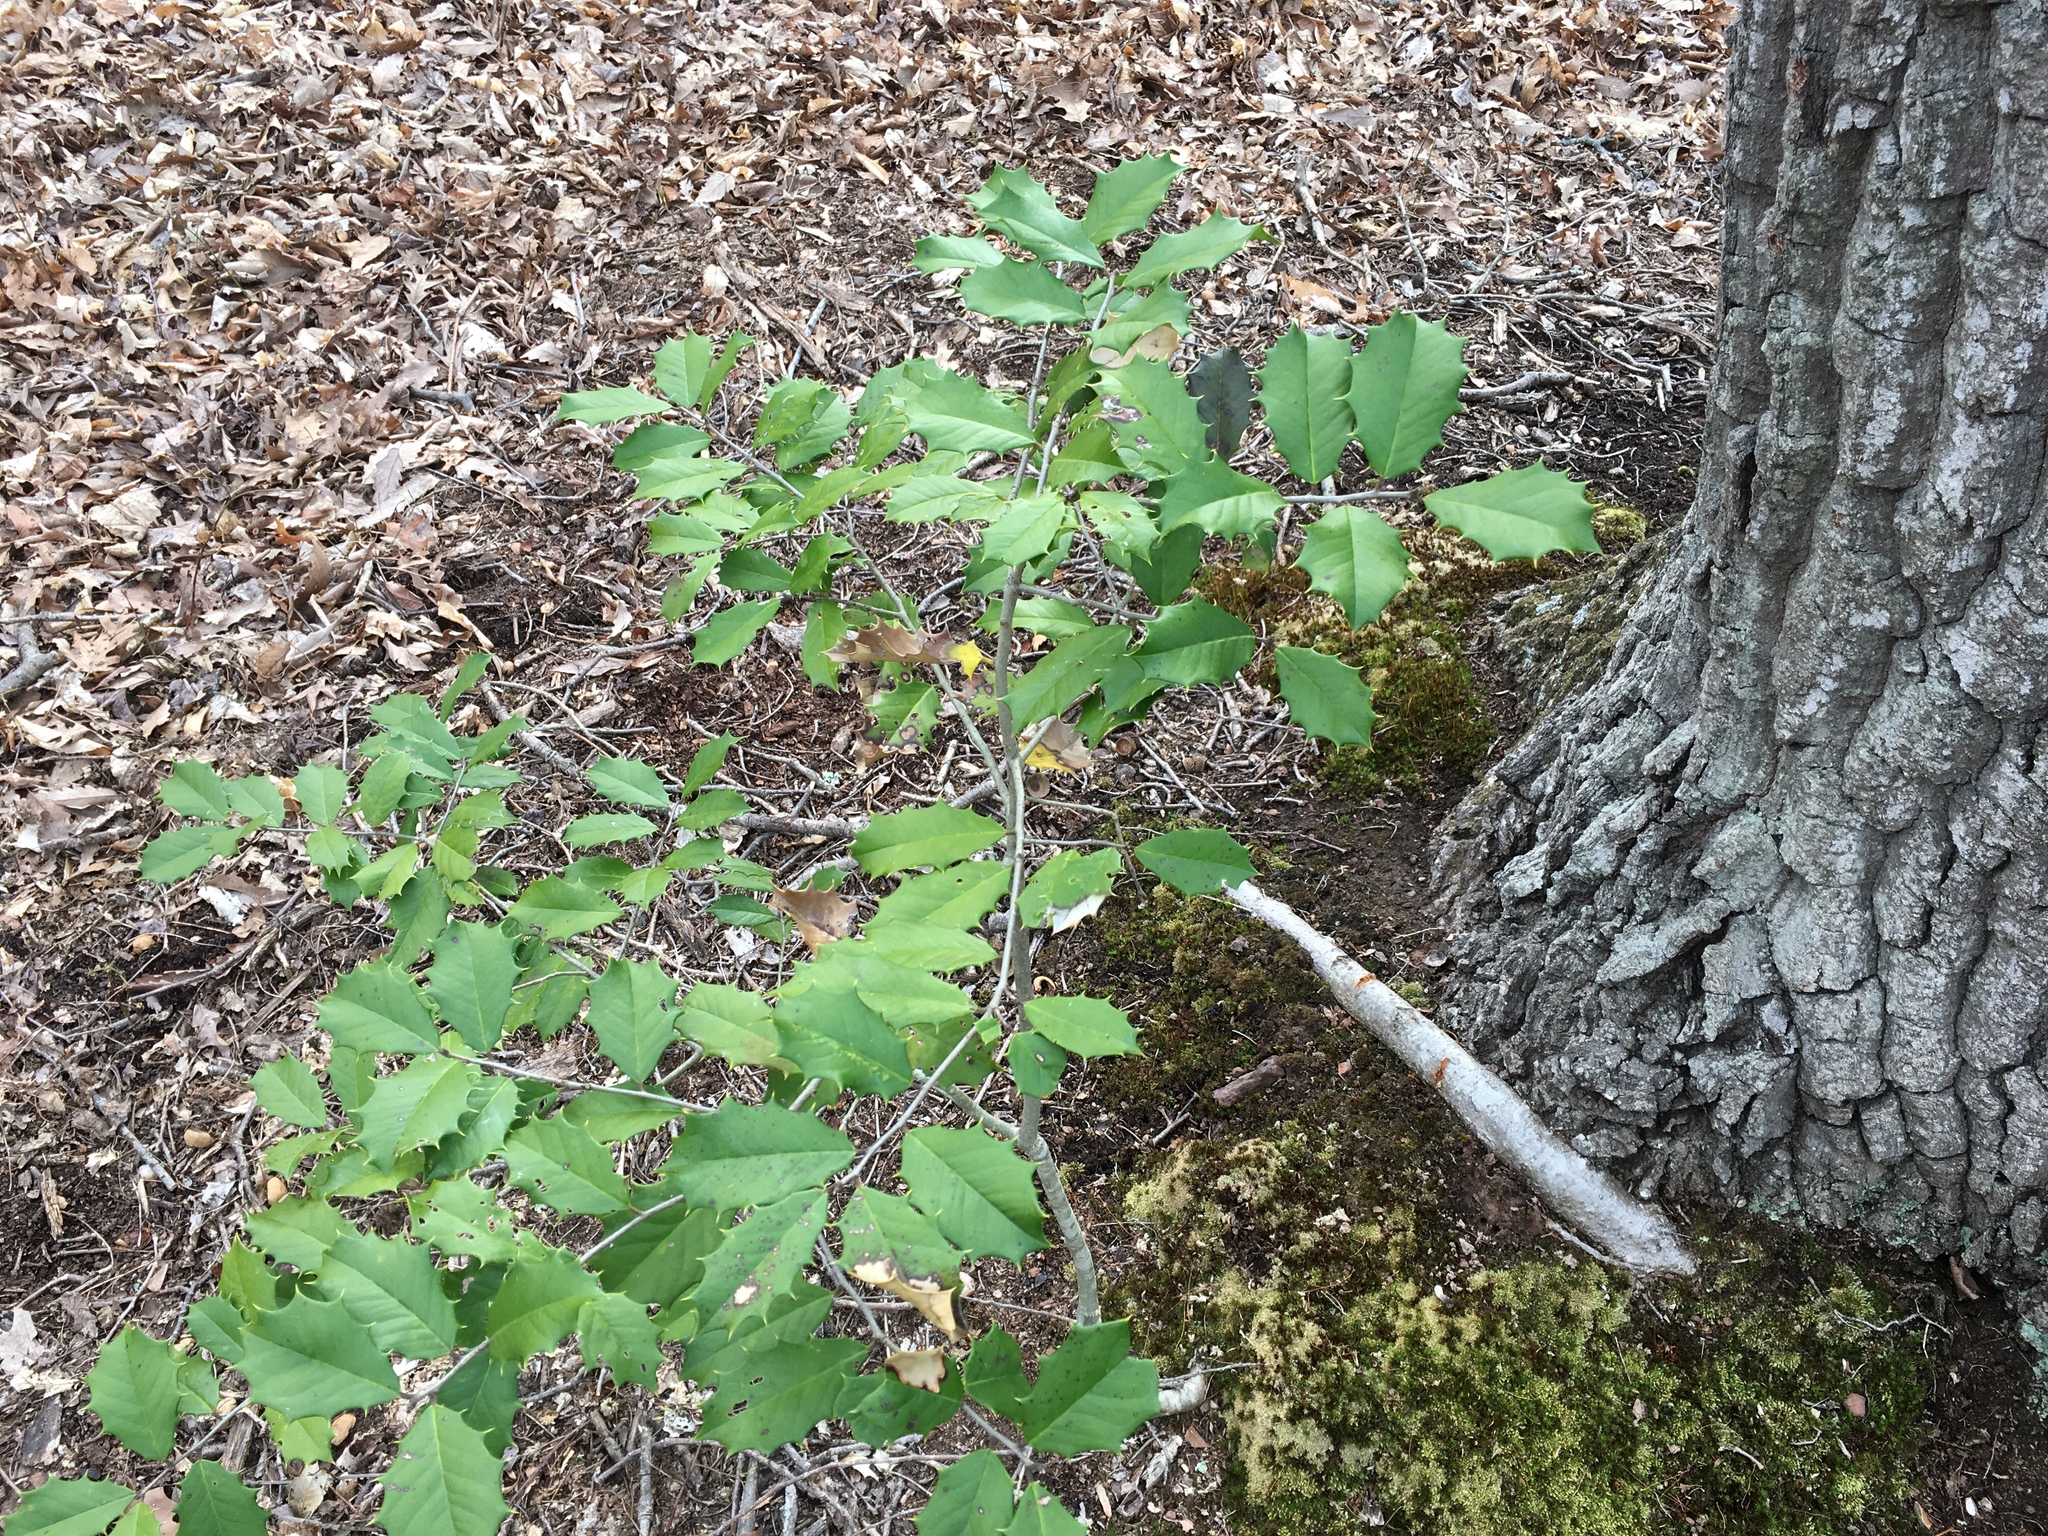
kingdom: Plantae
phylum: Tracheophyta
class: Magnoliopsida
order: Aquifoliales
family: Aquifoliaceae
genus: Ilex
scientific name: Ilex opaca
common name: American holly
